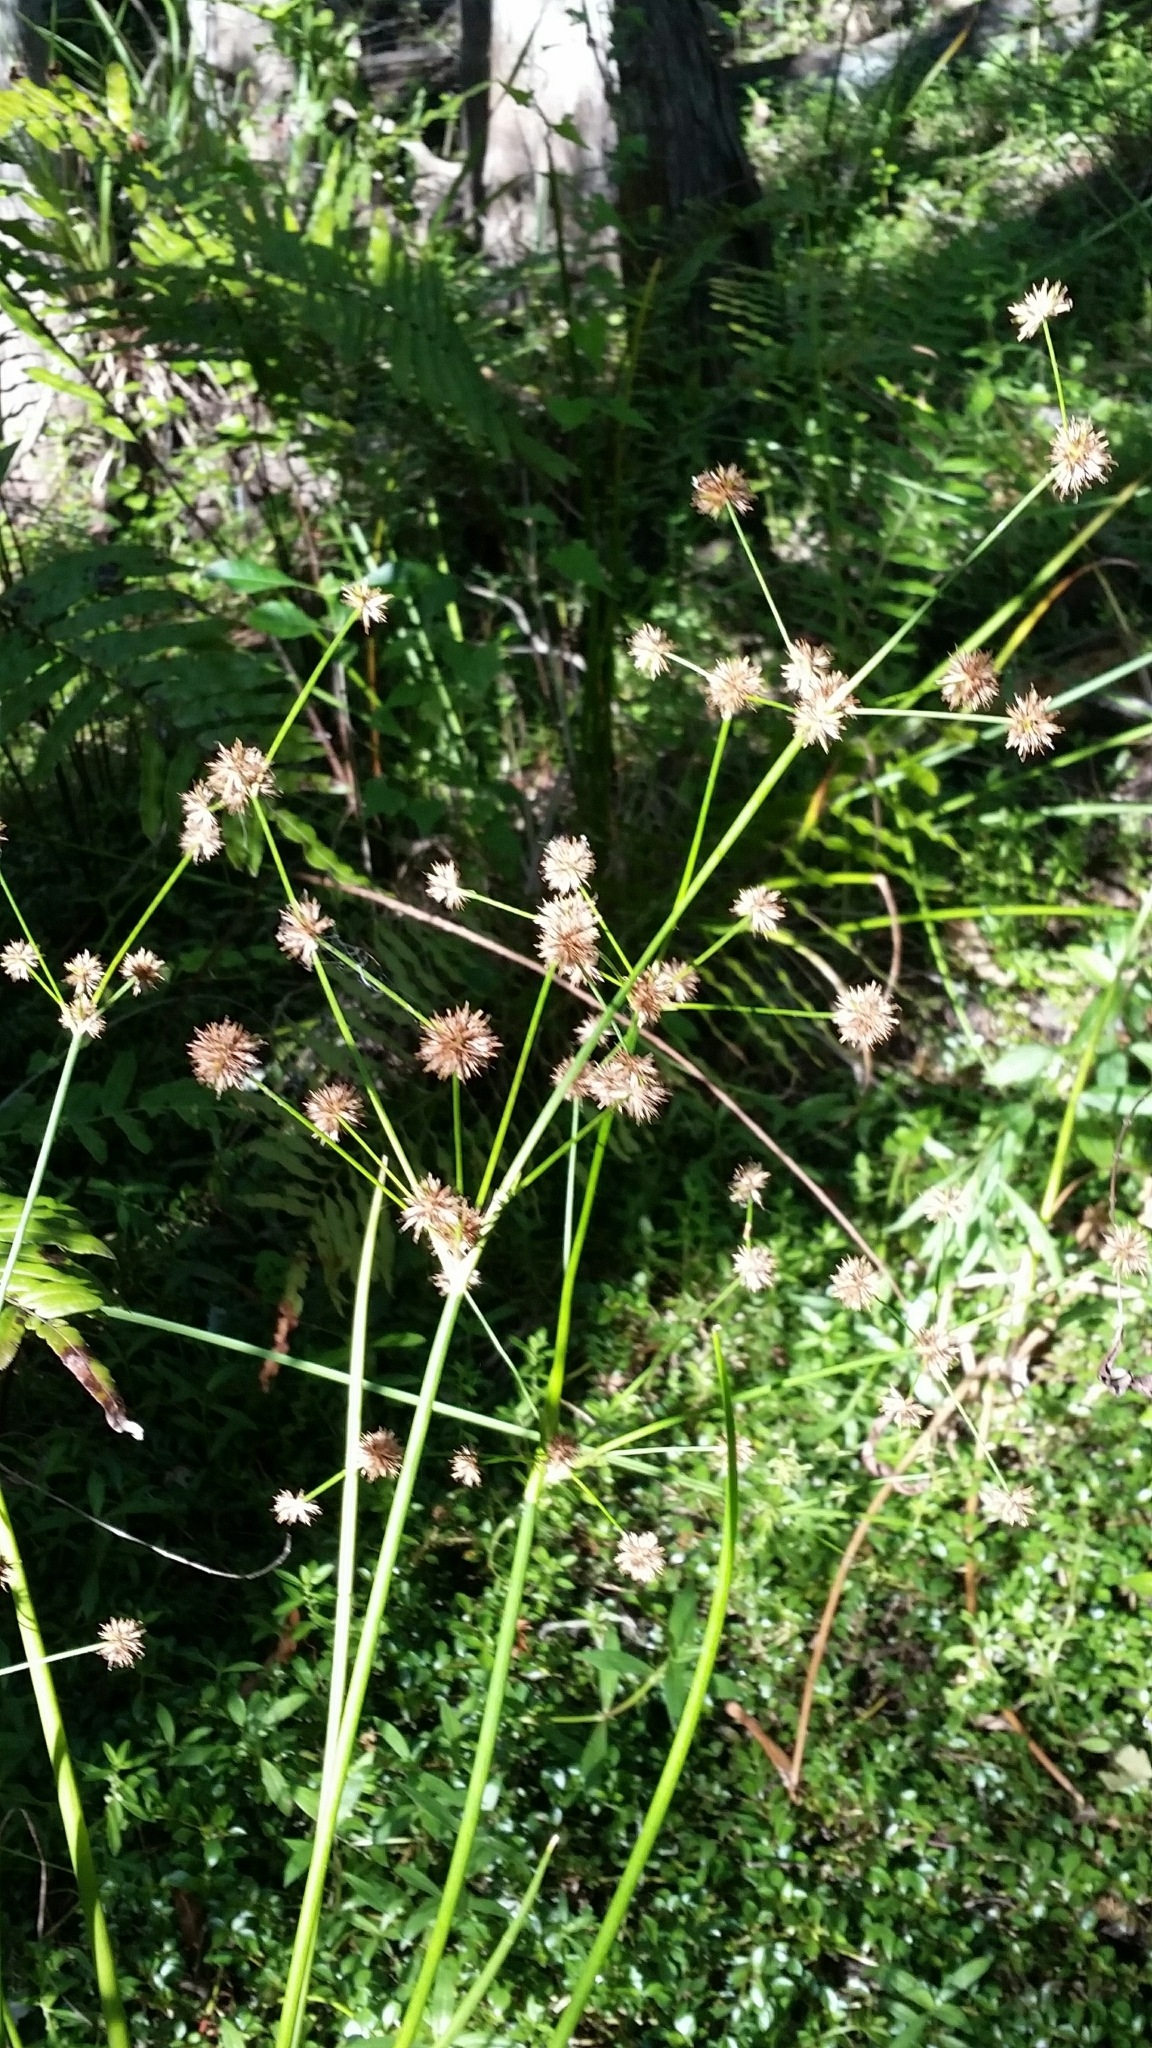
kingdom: Plantae
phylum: Tracheophyta
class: Liliopsida
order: Poales
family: Juncaceae
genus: Juncus
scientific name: Juncus paludosus
